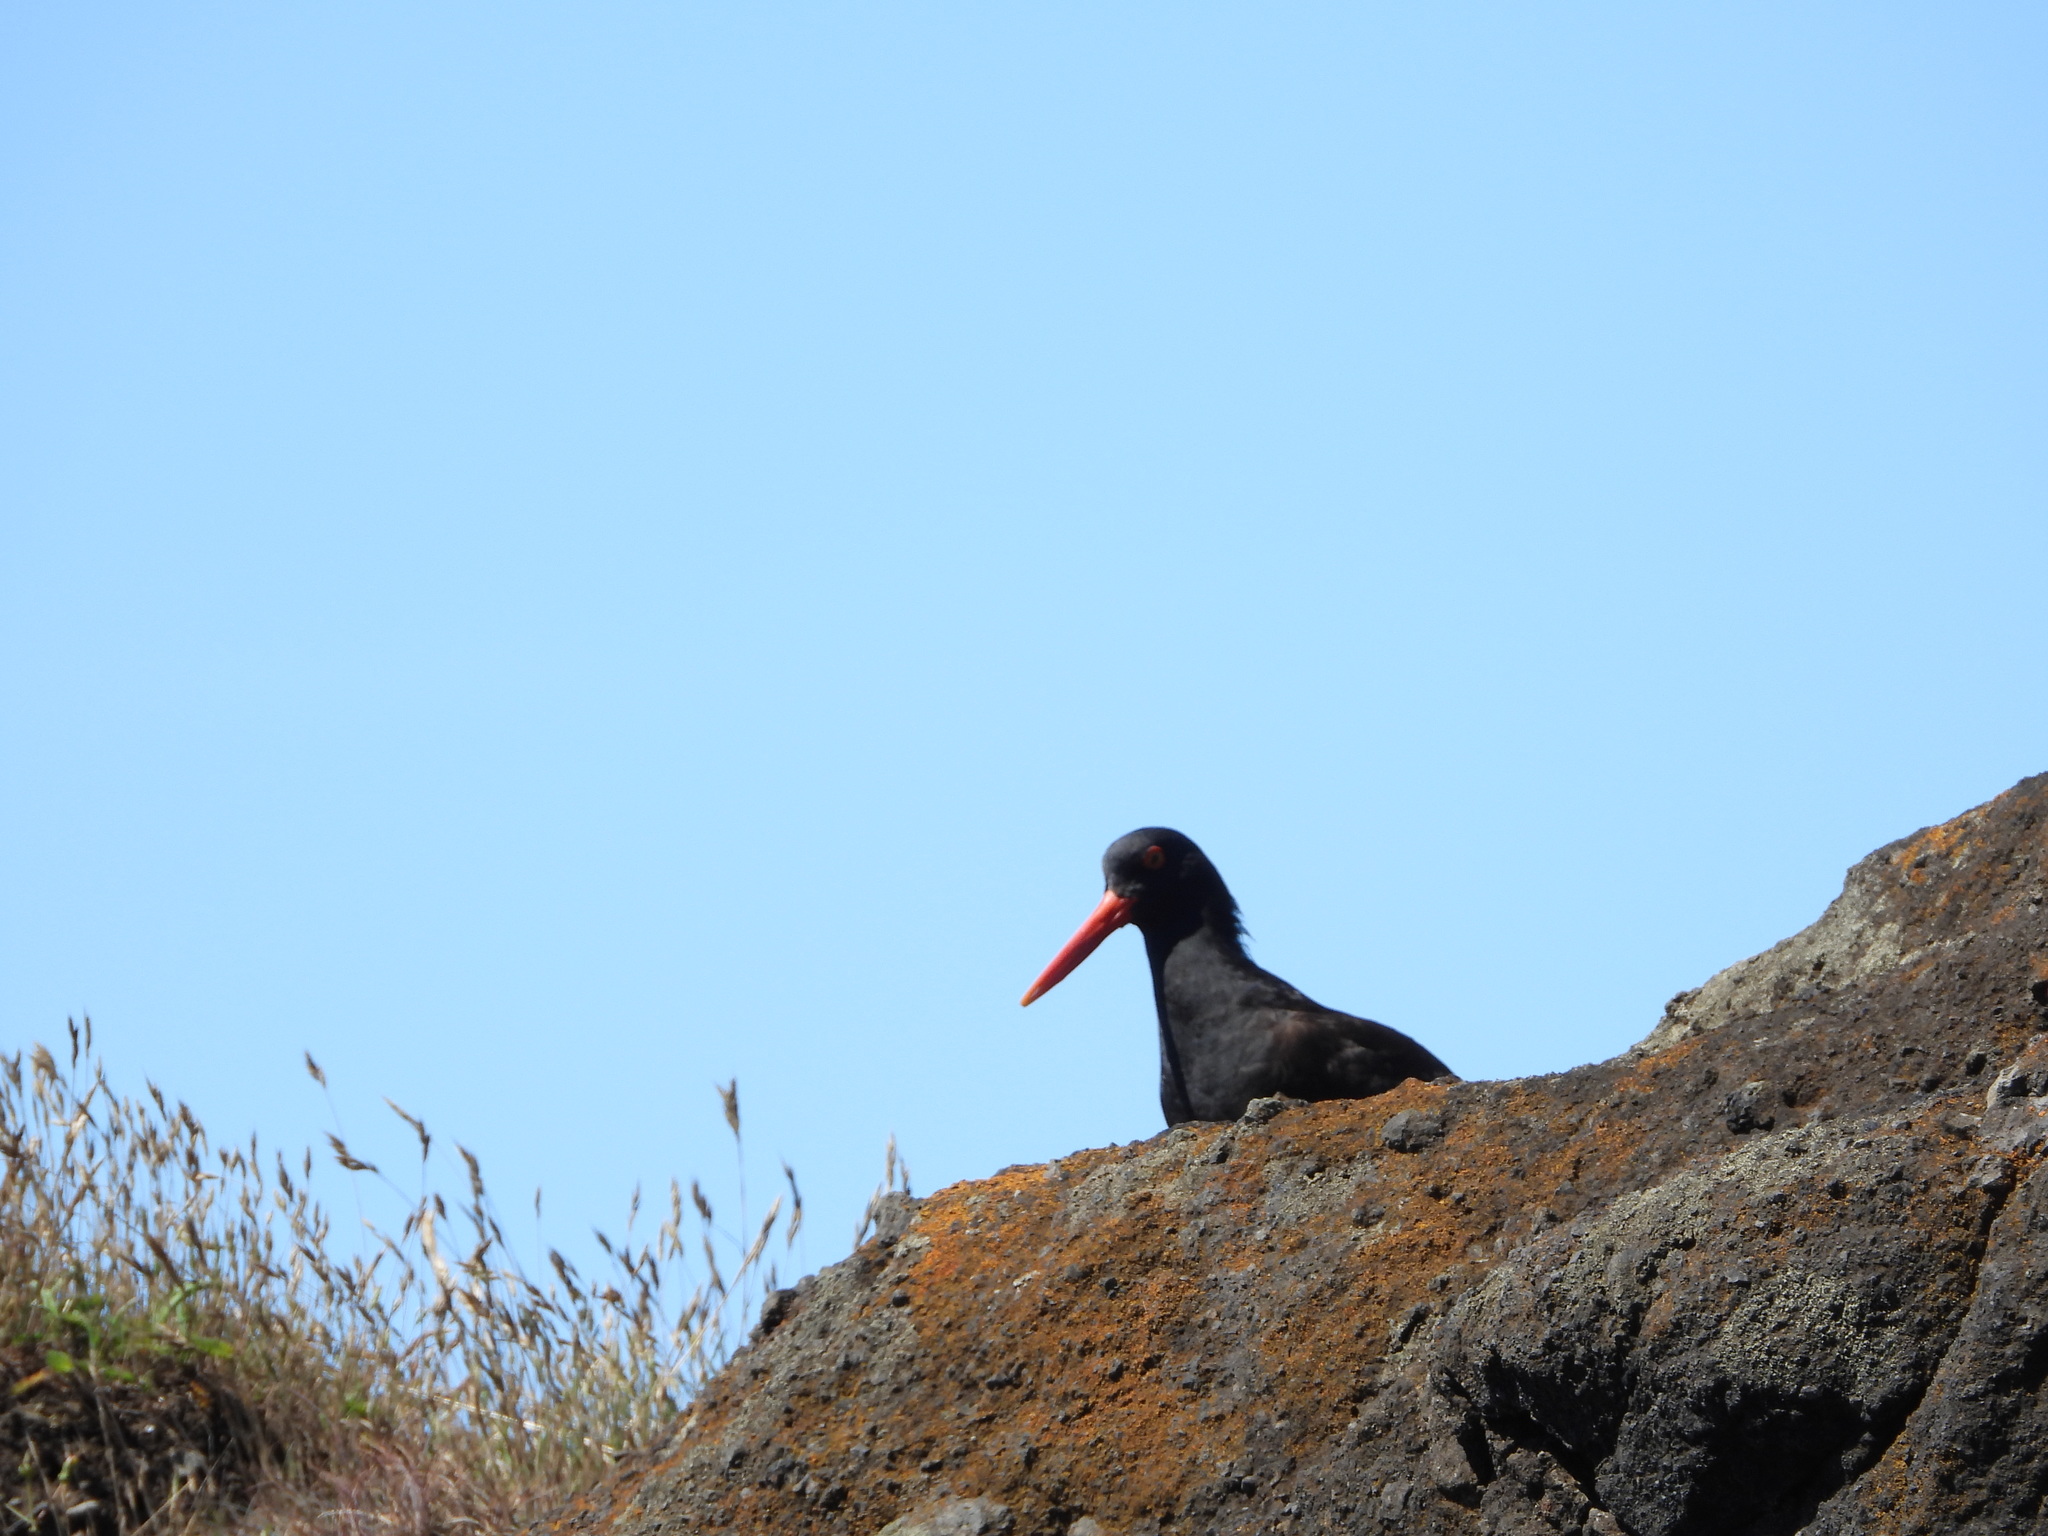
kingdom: Animalia
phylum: Chordata
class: Aves
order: Charadriiformes
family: Haematopodidae
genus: Haematopus
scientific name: Haematopus bachmani
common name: Black oystercatcher
